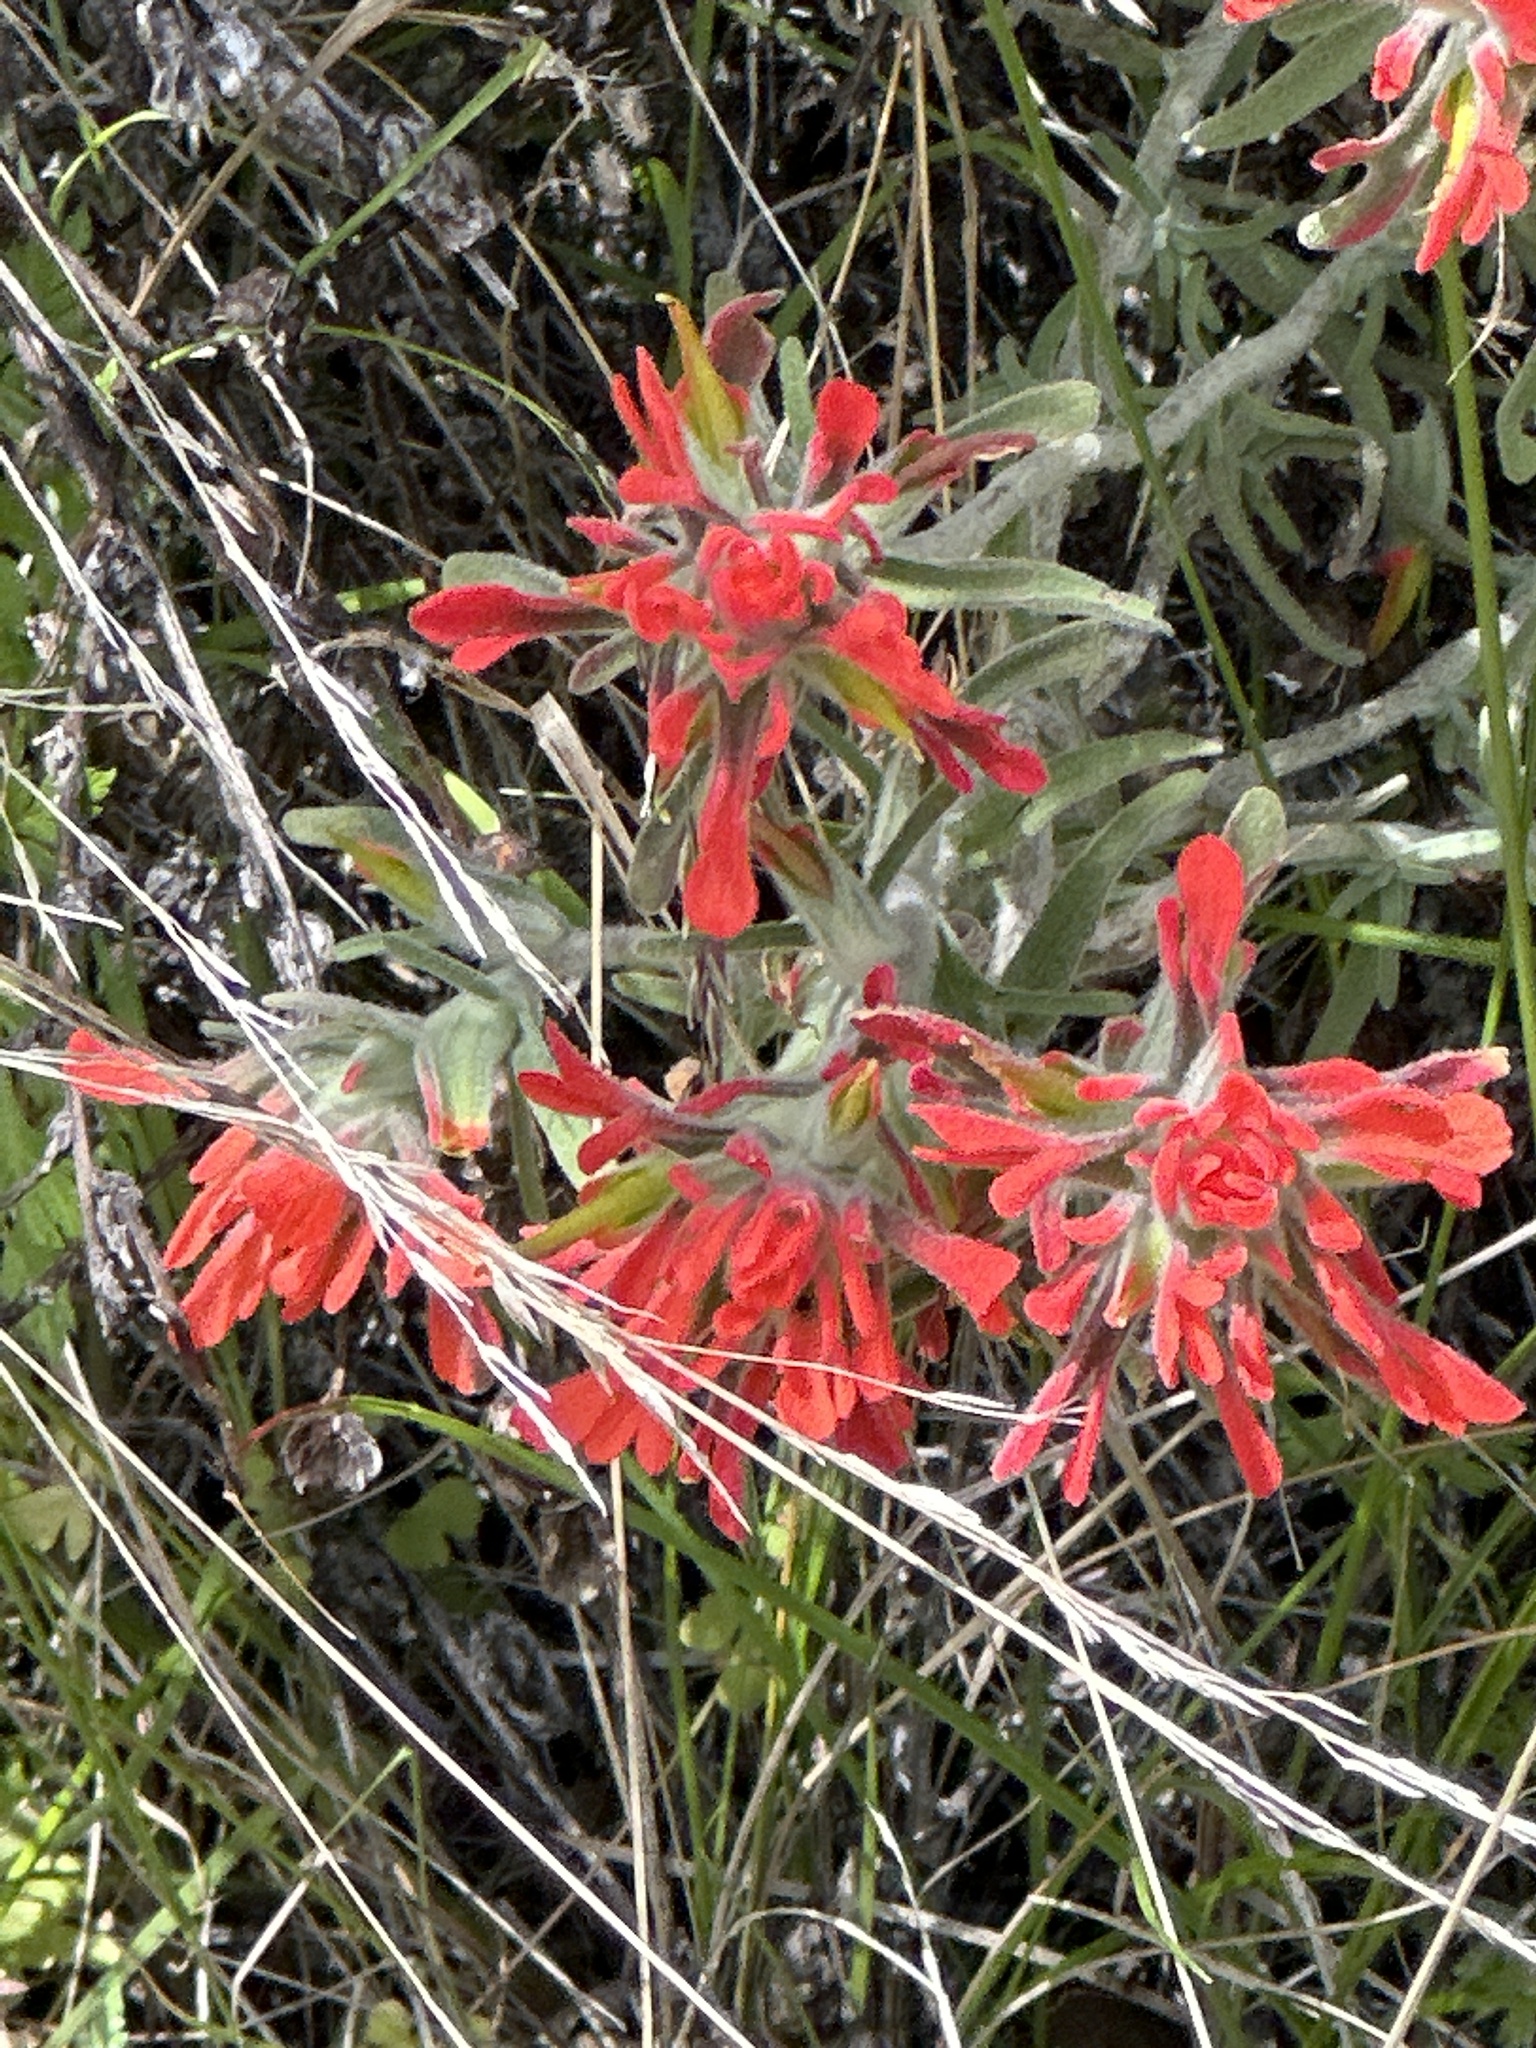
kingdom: Plantae
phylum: Tracheophyta
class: Magnoliopsida
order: Lamiales
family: Orobanchaceae
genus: Castilleja
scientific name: Castilleja foliolosa
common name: Woolly indian paintbrush
